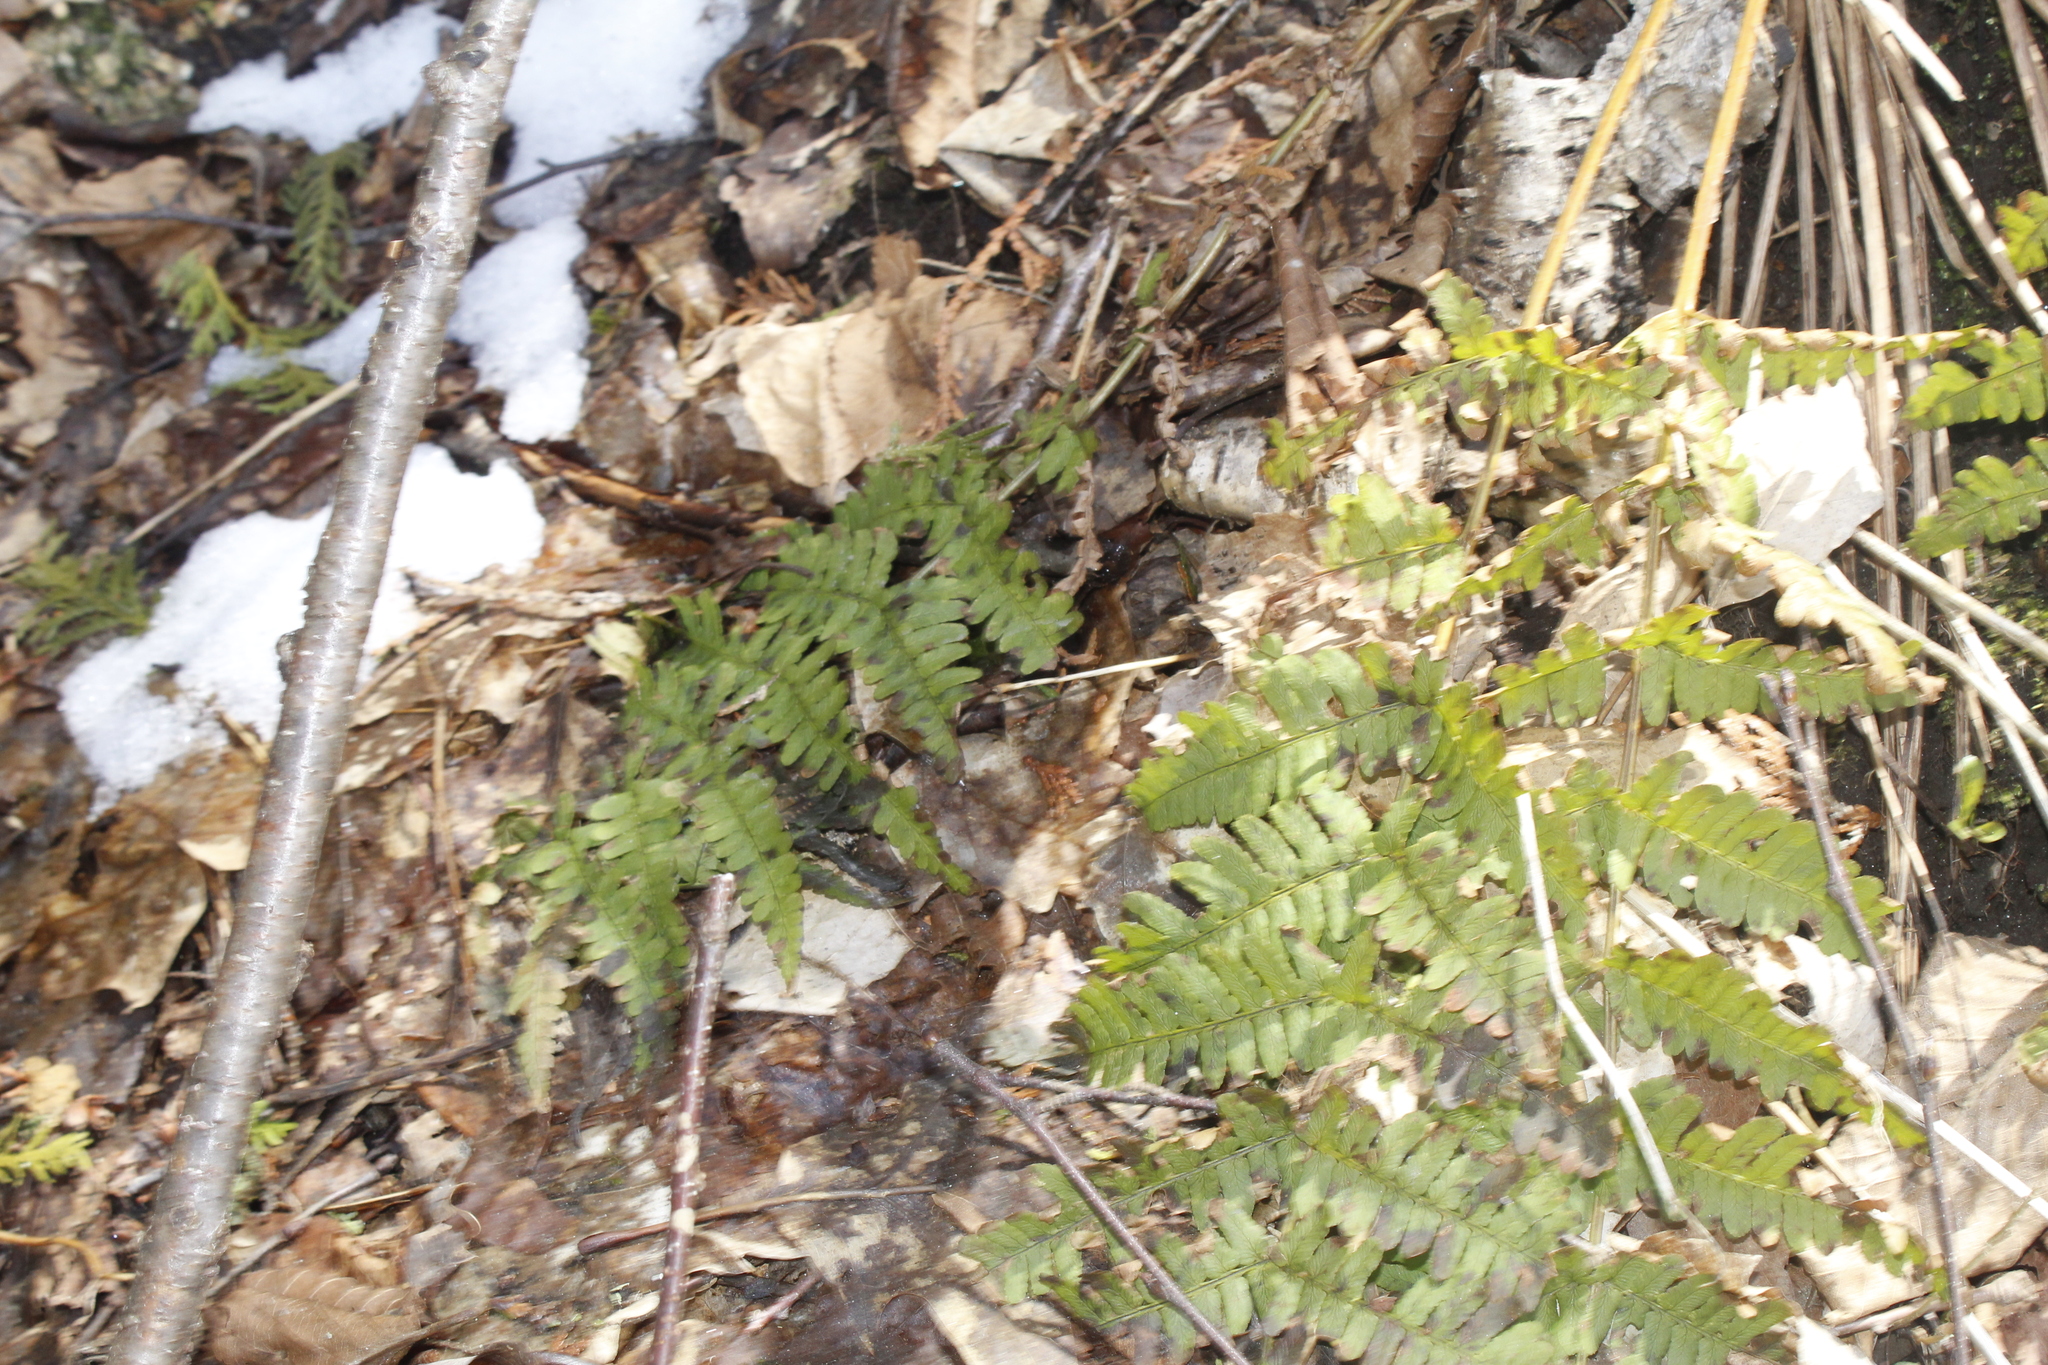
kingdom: Plantae
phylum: Tracheophyta
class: Polypodiopsida
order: Polypodiales
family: Dryopteridaceae
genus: Dryopteris
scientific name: Dryopteris marginalis
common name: Marginal wood fern
